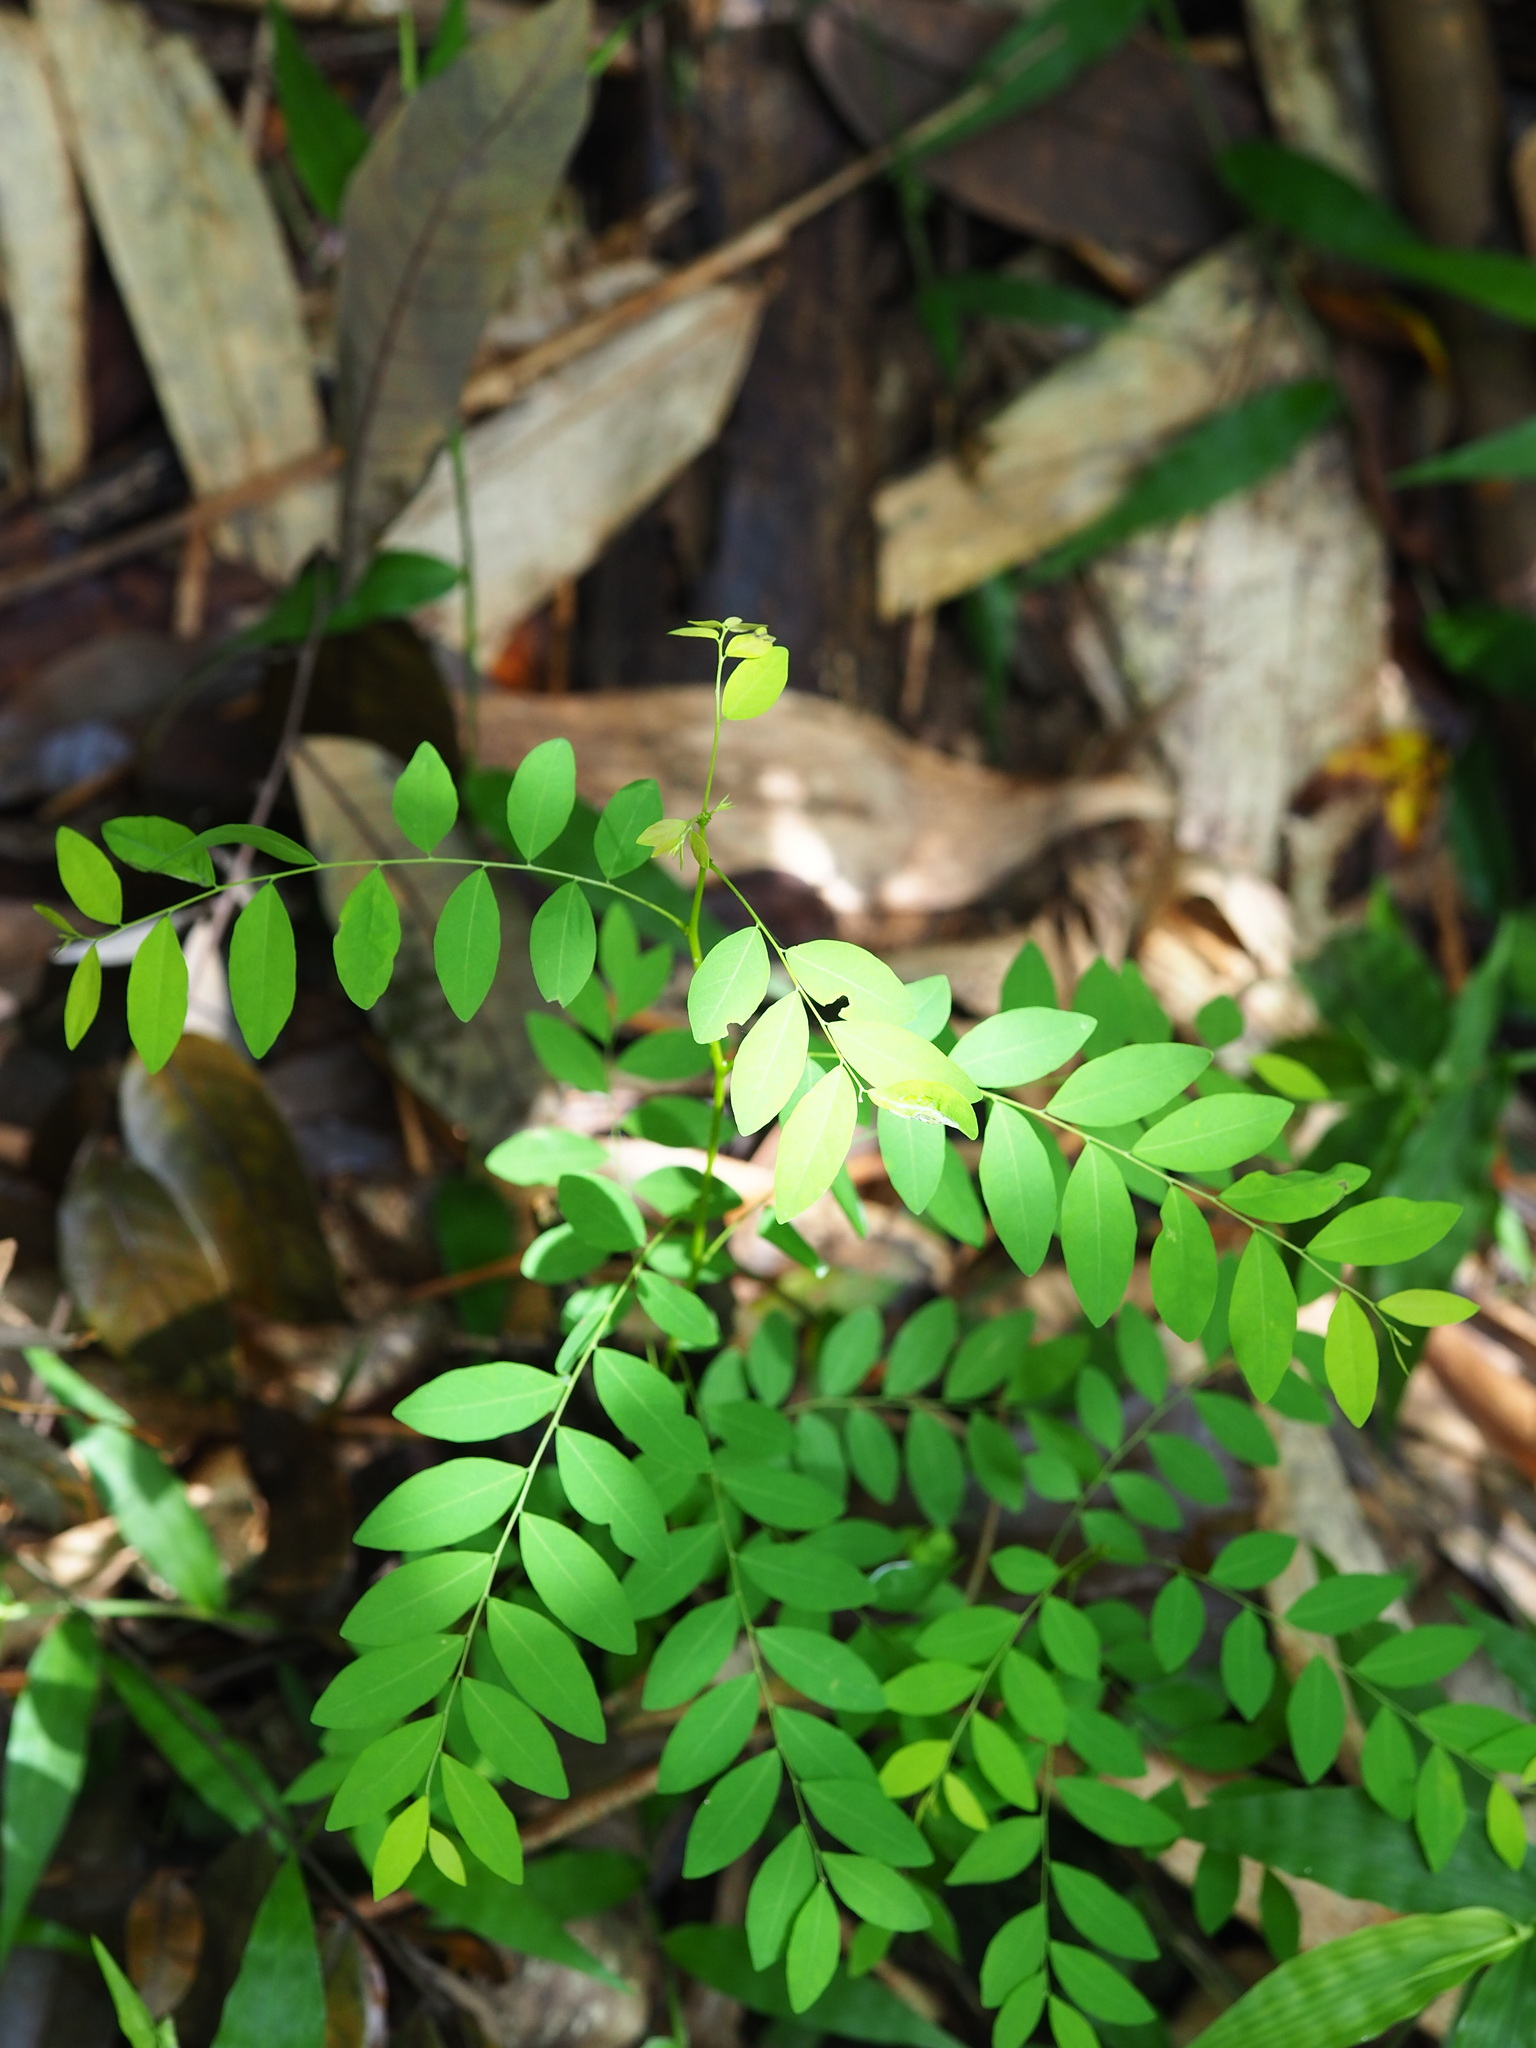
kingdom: Plantae
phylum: Tracheophyta
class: Magnoliopsida
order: Malpighiales
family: Phyllanthaceae
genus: Phyllanthus
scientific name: Phyllanthus tenellus
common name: Mascarene island leaf-flower
